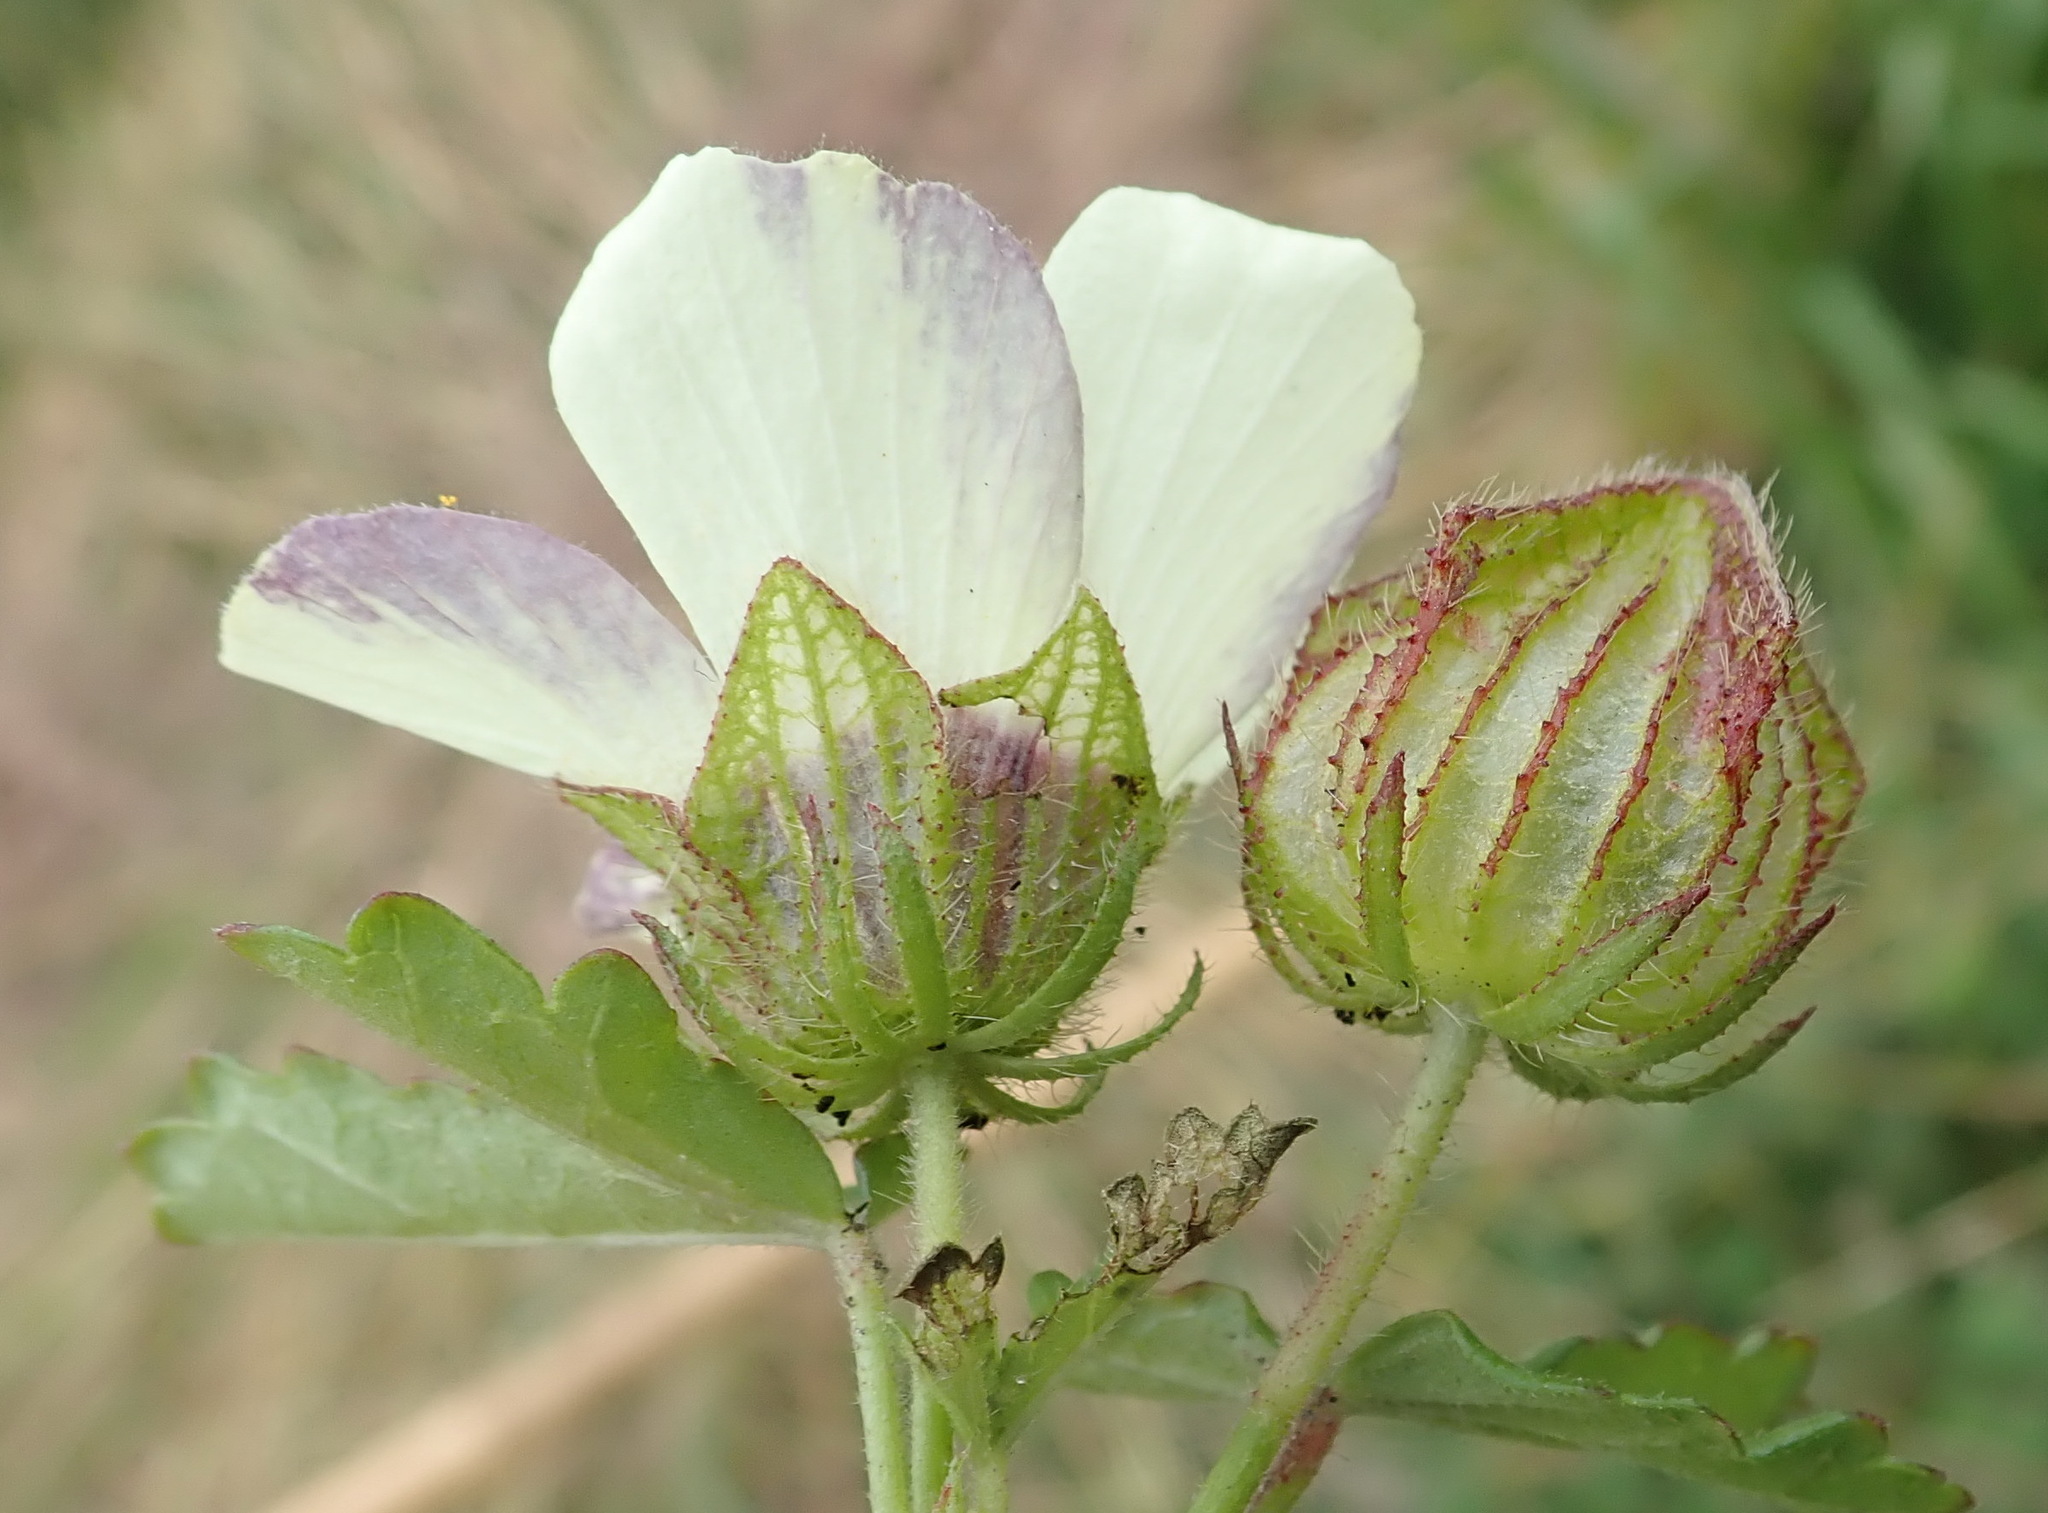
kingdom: Plantae
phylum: Tracheophyta
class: Magnoliopsida
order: Malvales
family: Malvaceae
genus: Hibiscus
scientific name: Hibiscus trionum
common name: Bladder ketmia
